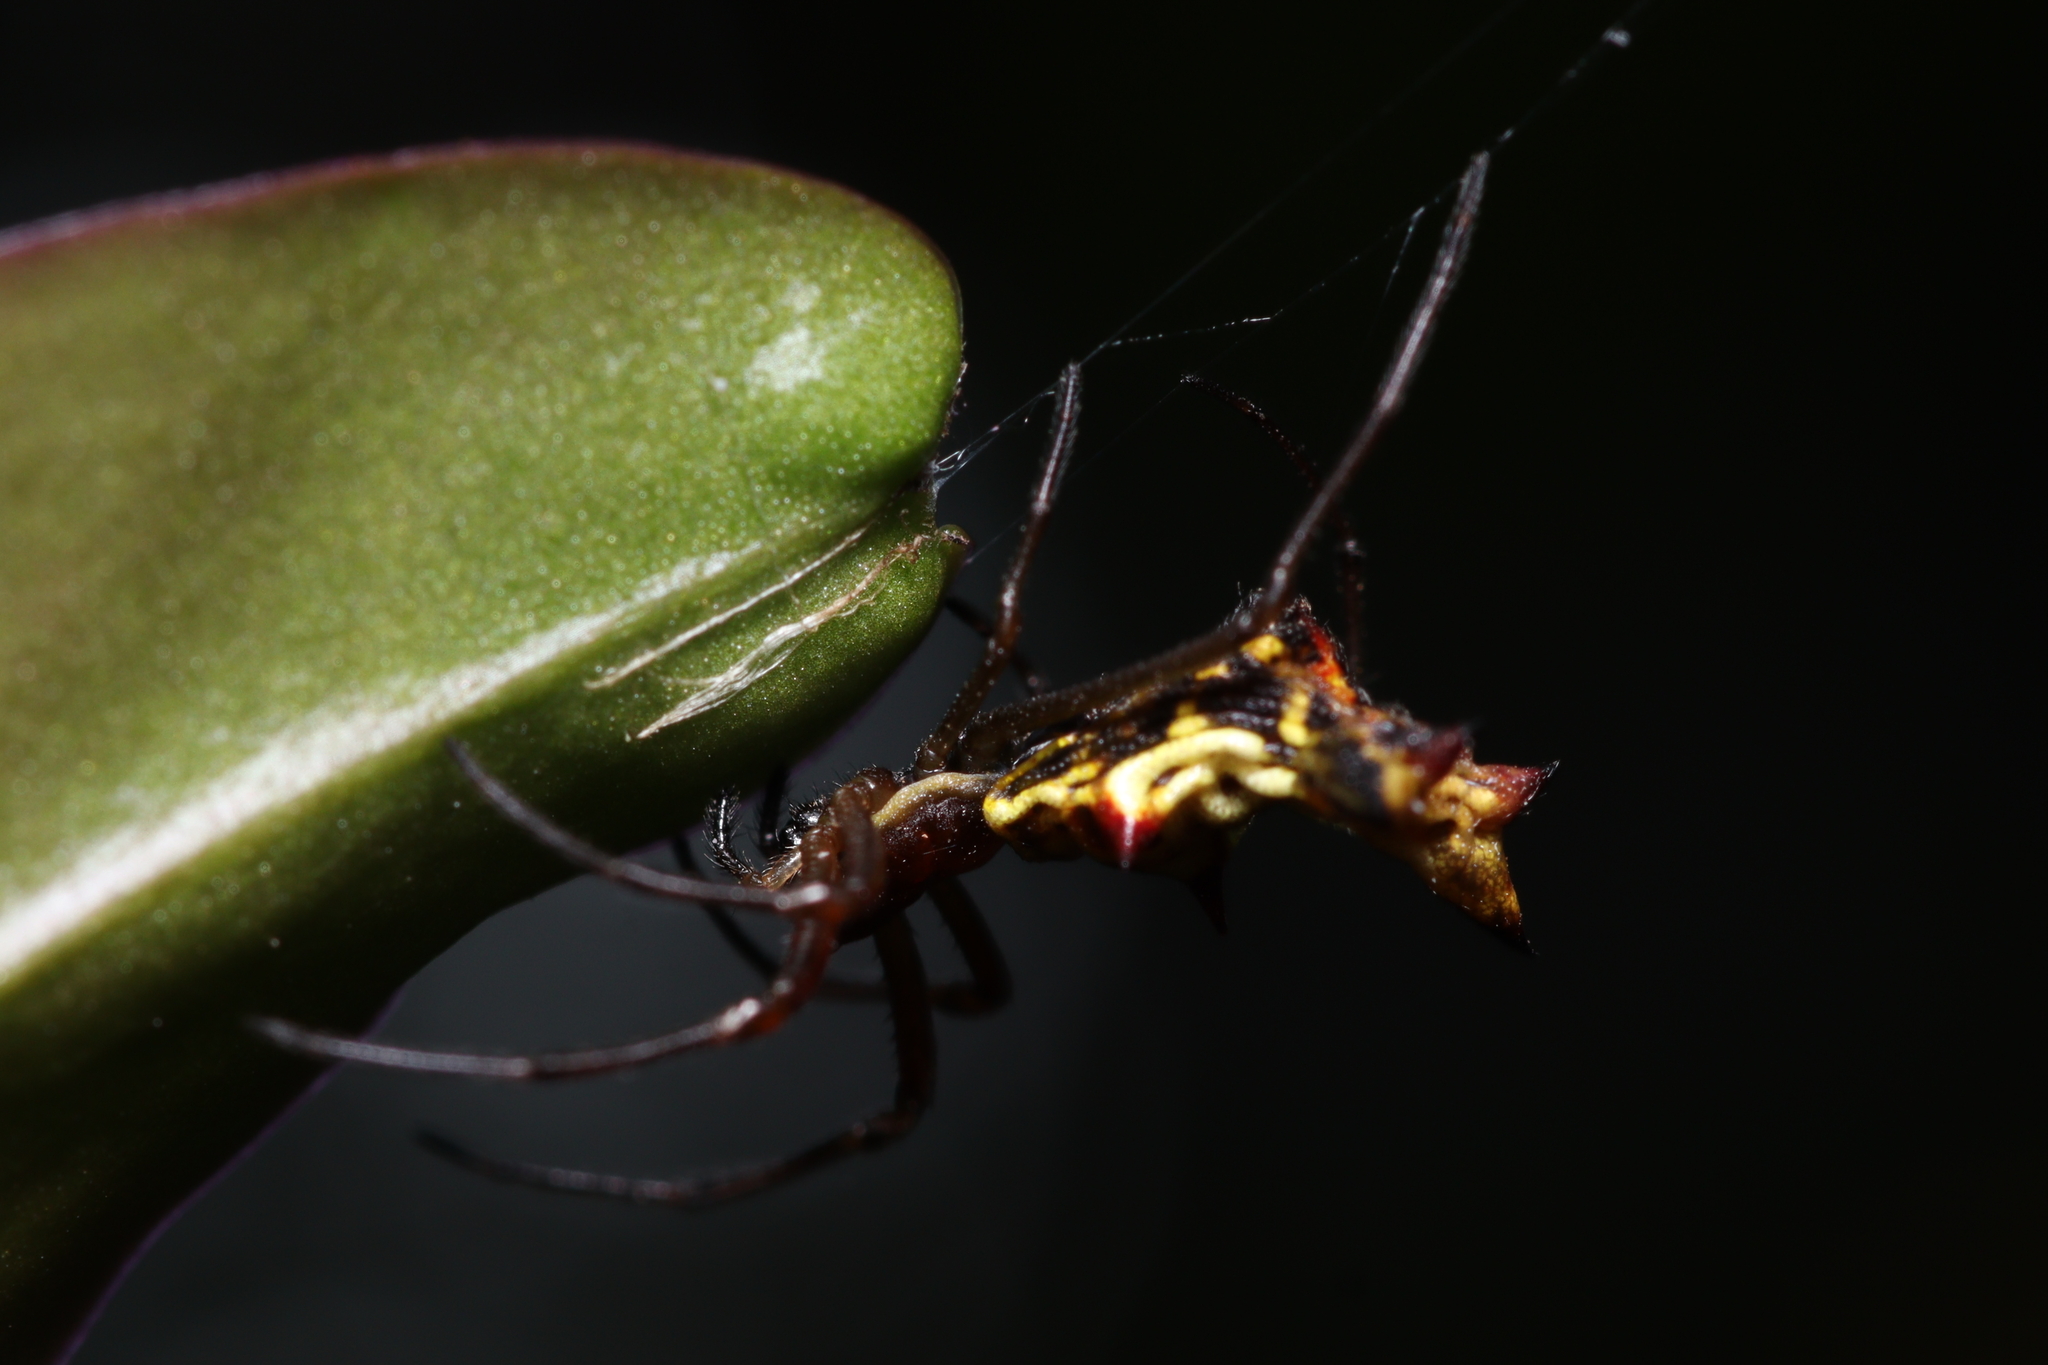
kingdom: Animalia
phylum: Arthropoda
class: Arachnida
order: Araneae
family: Araneidae
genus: Micrathena
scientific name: Micrathena fissispina
